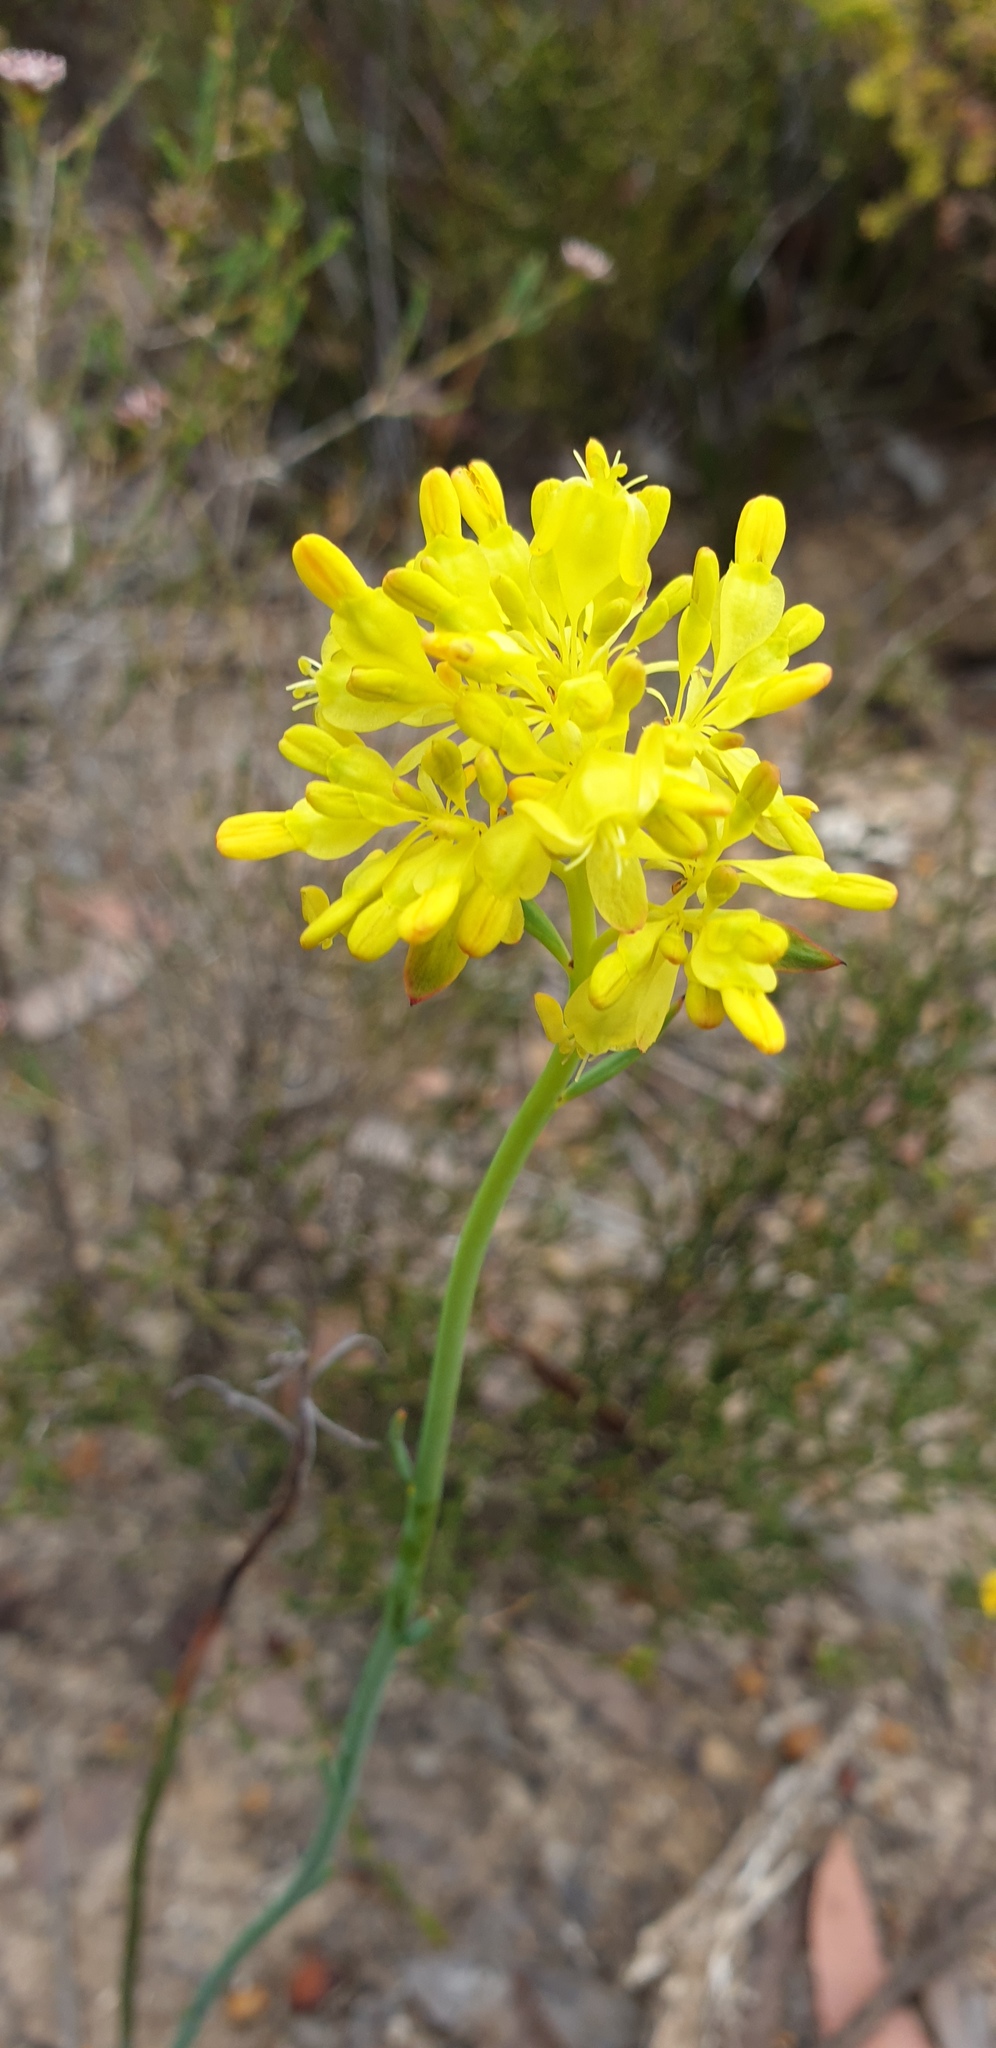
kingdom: Plantae
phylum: Tracheophyta
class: Magnoliopsida
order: Saxifragales
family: Haloragaceae
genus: Glischrocaryon
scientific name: Glischrocaryon behrii
